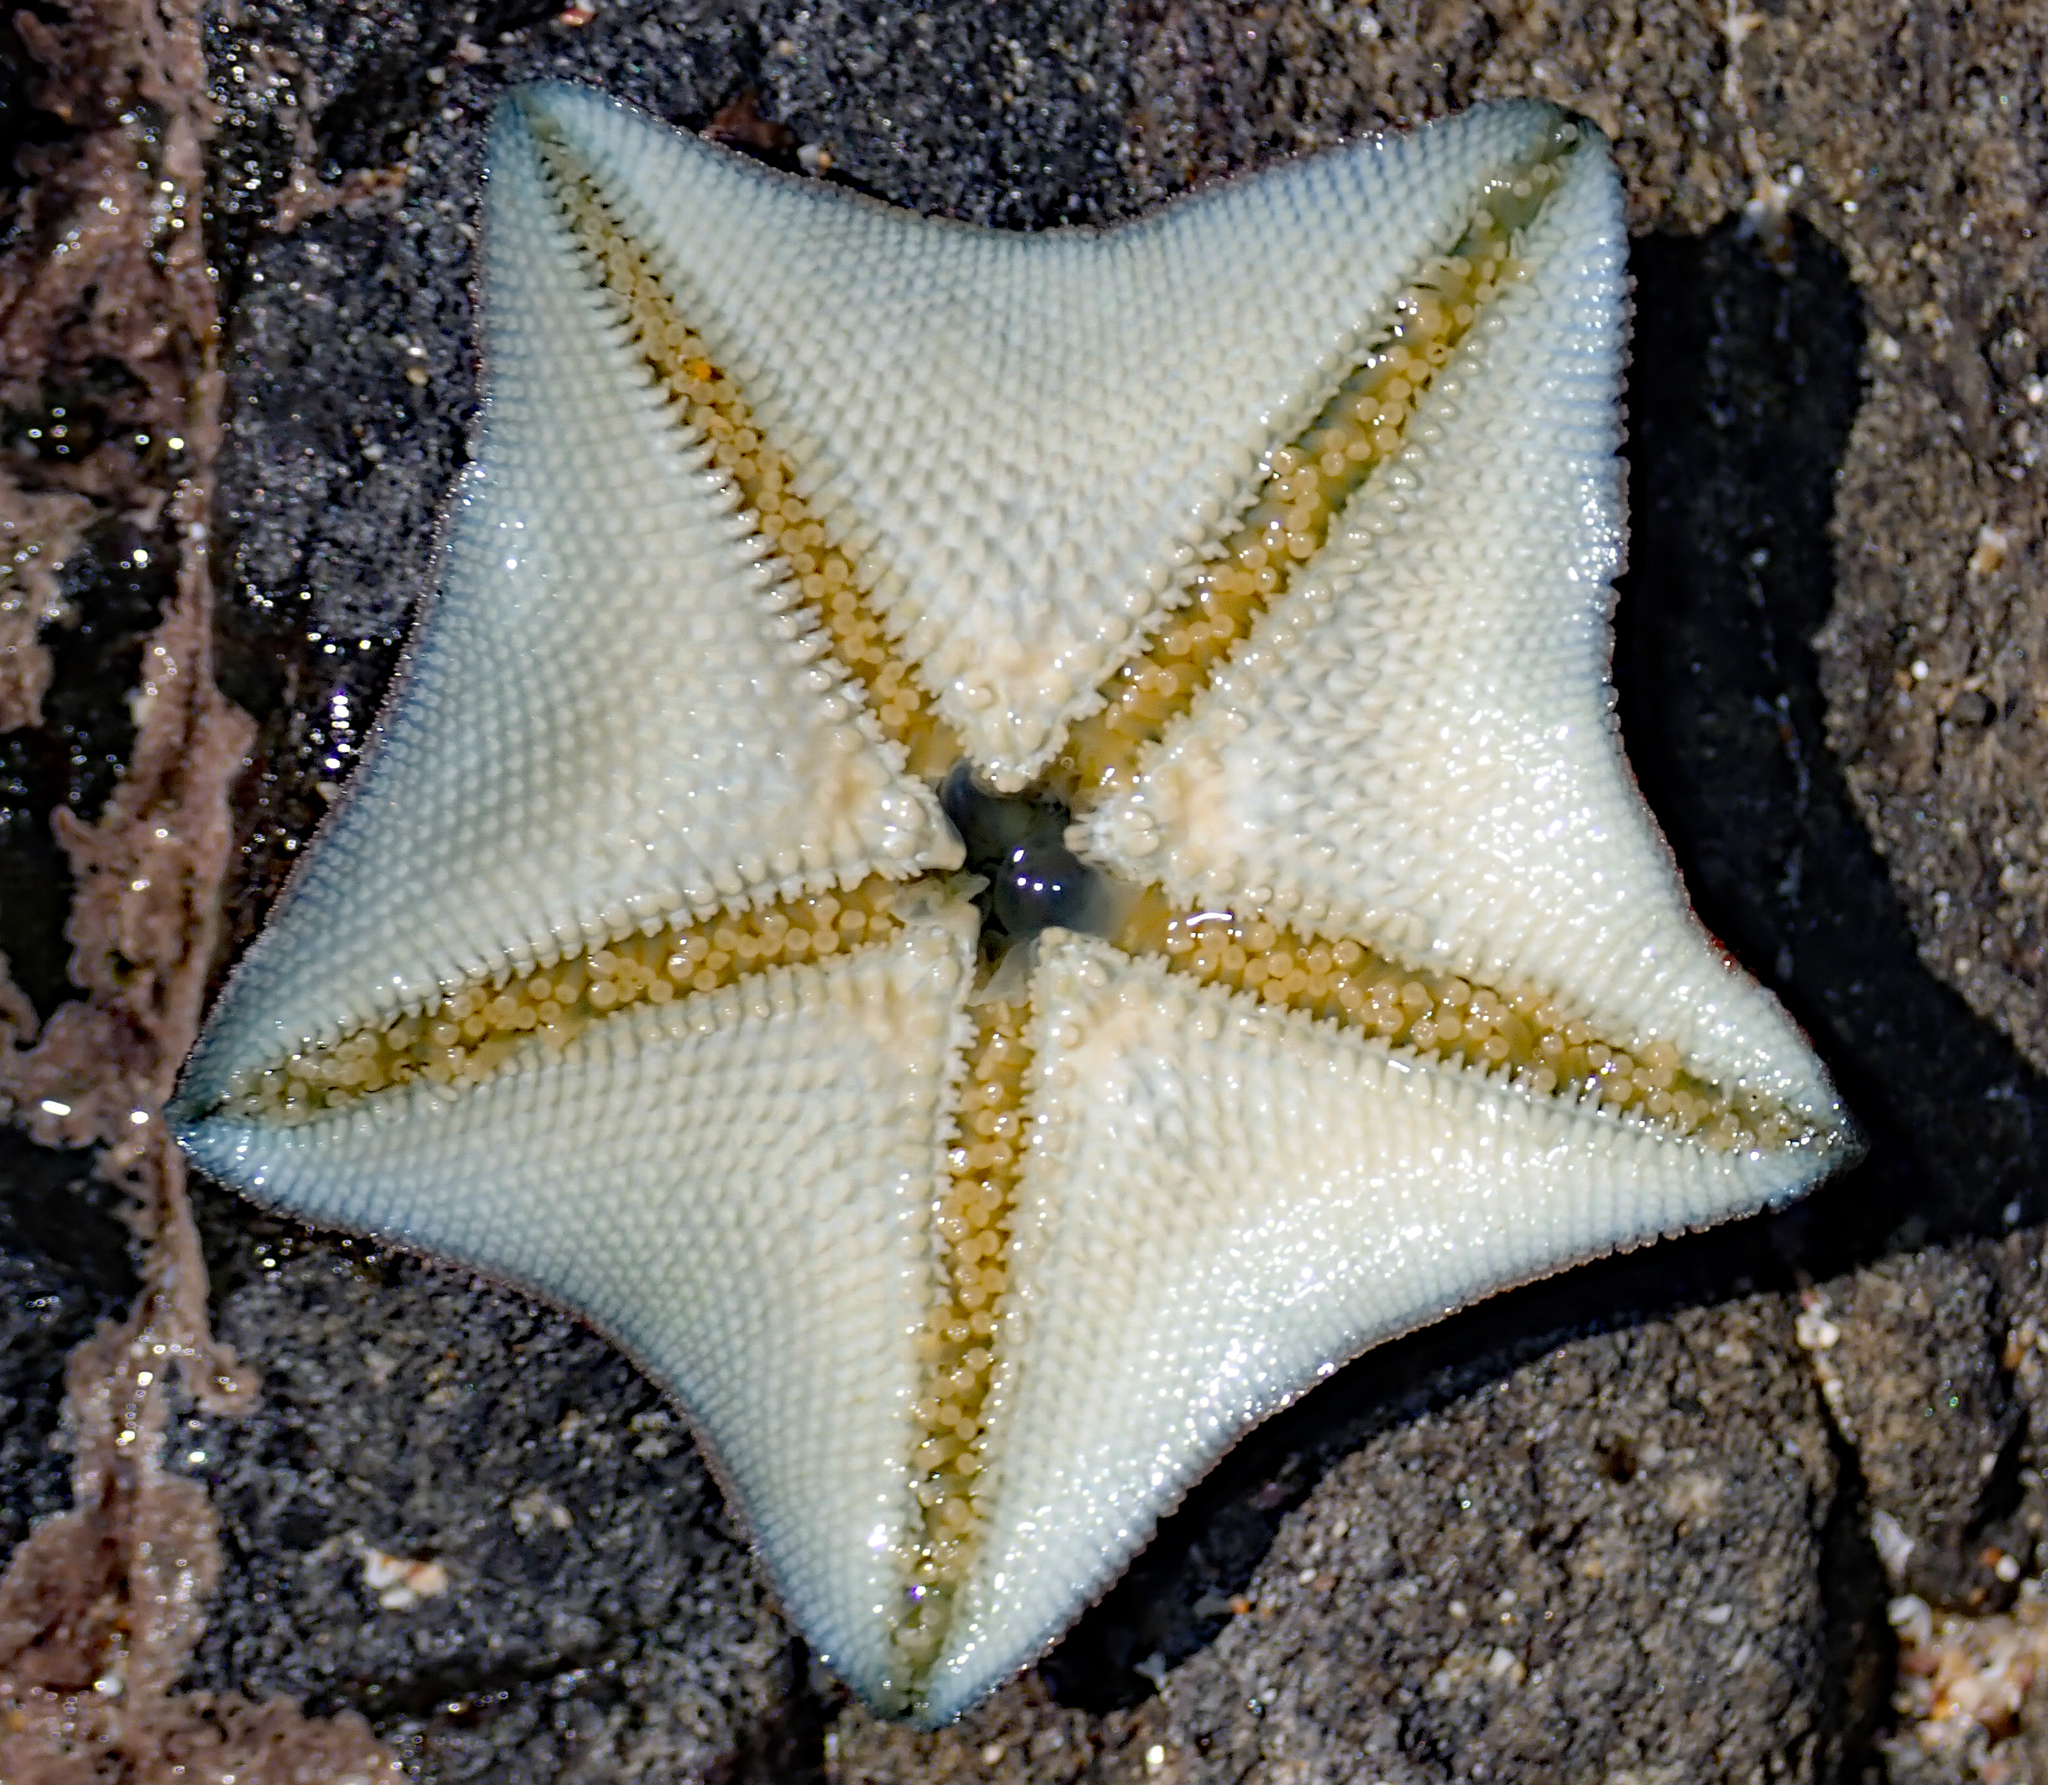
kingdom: Animalia
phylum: Echinodermata
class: Asteroidea
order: Valvatida
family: Asterinidae
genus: Patiriella
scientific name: Patiriella regularis
